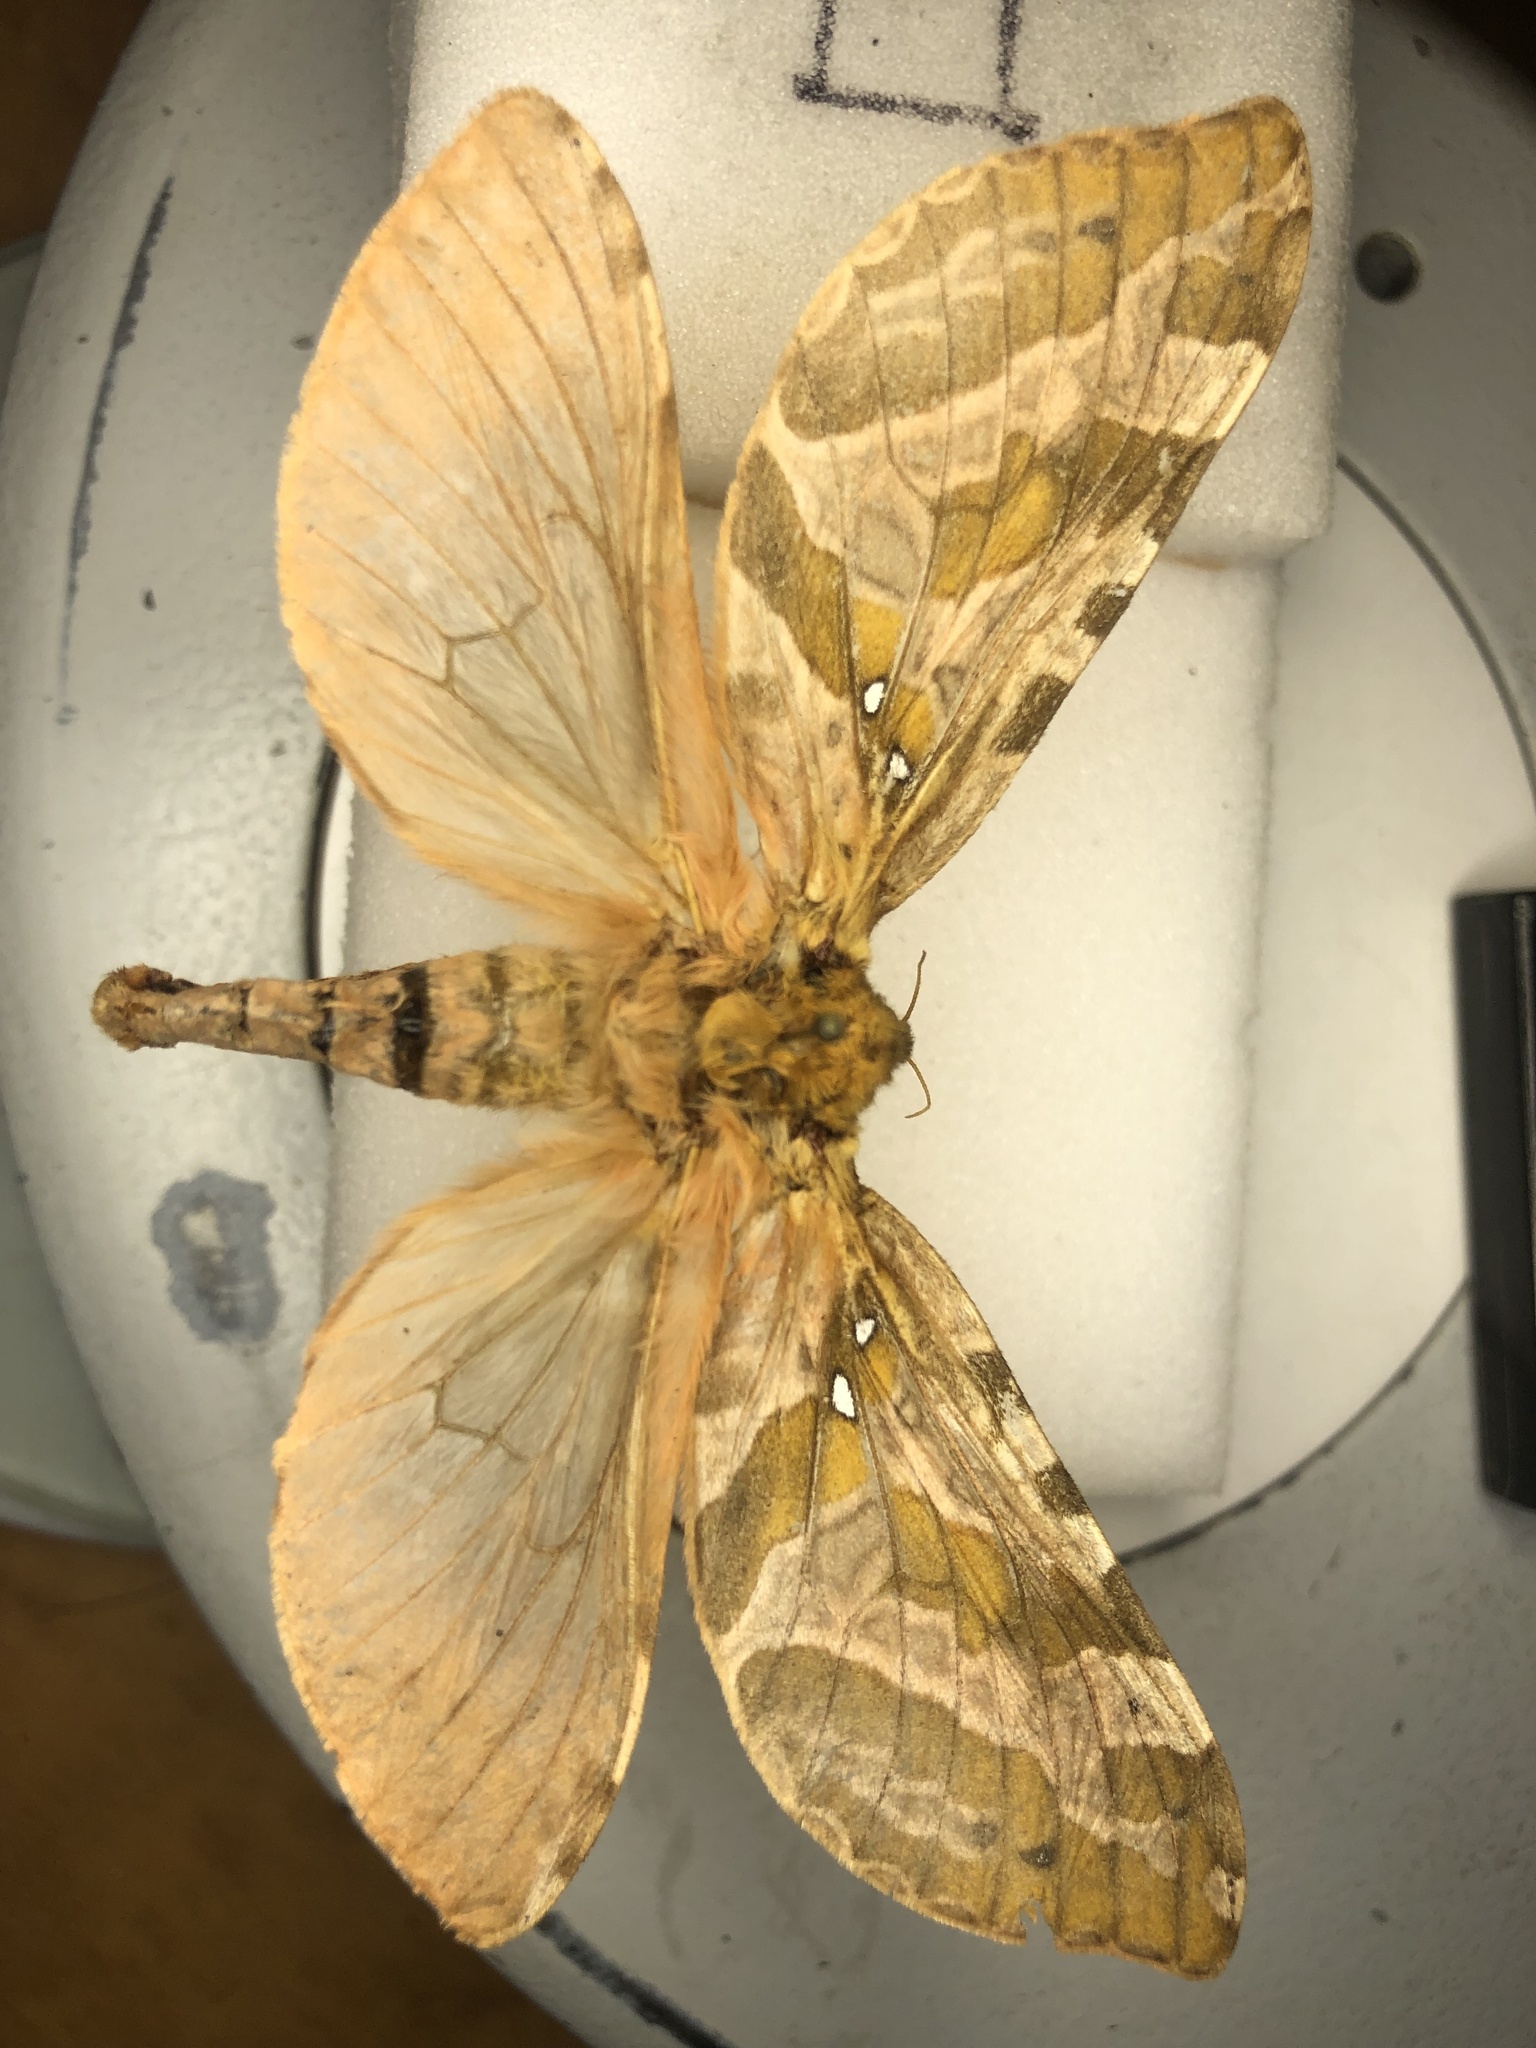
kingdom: Animalia
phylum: Arthropoda
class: Insecta
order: Lepidoptera
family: Hepialidae
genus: Sthenopis
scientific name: Sthenopis purpurascens
